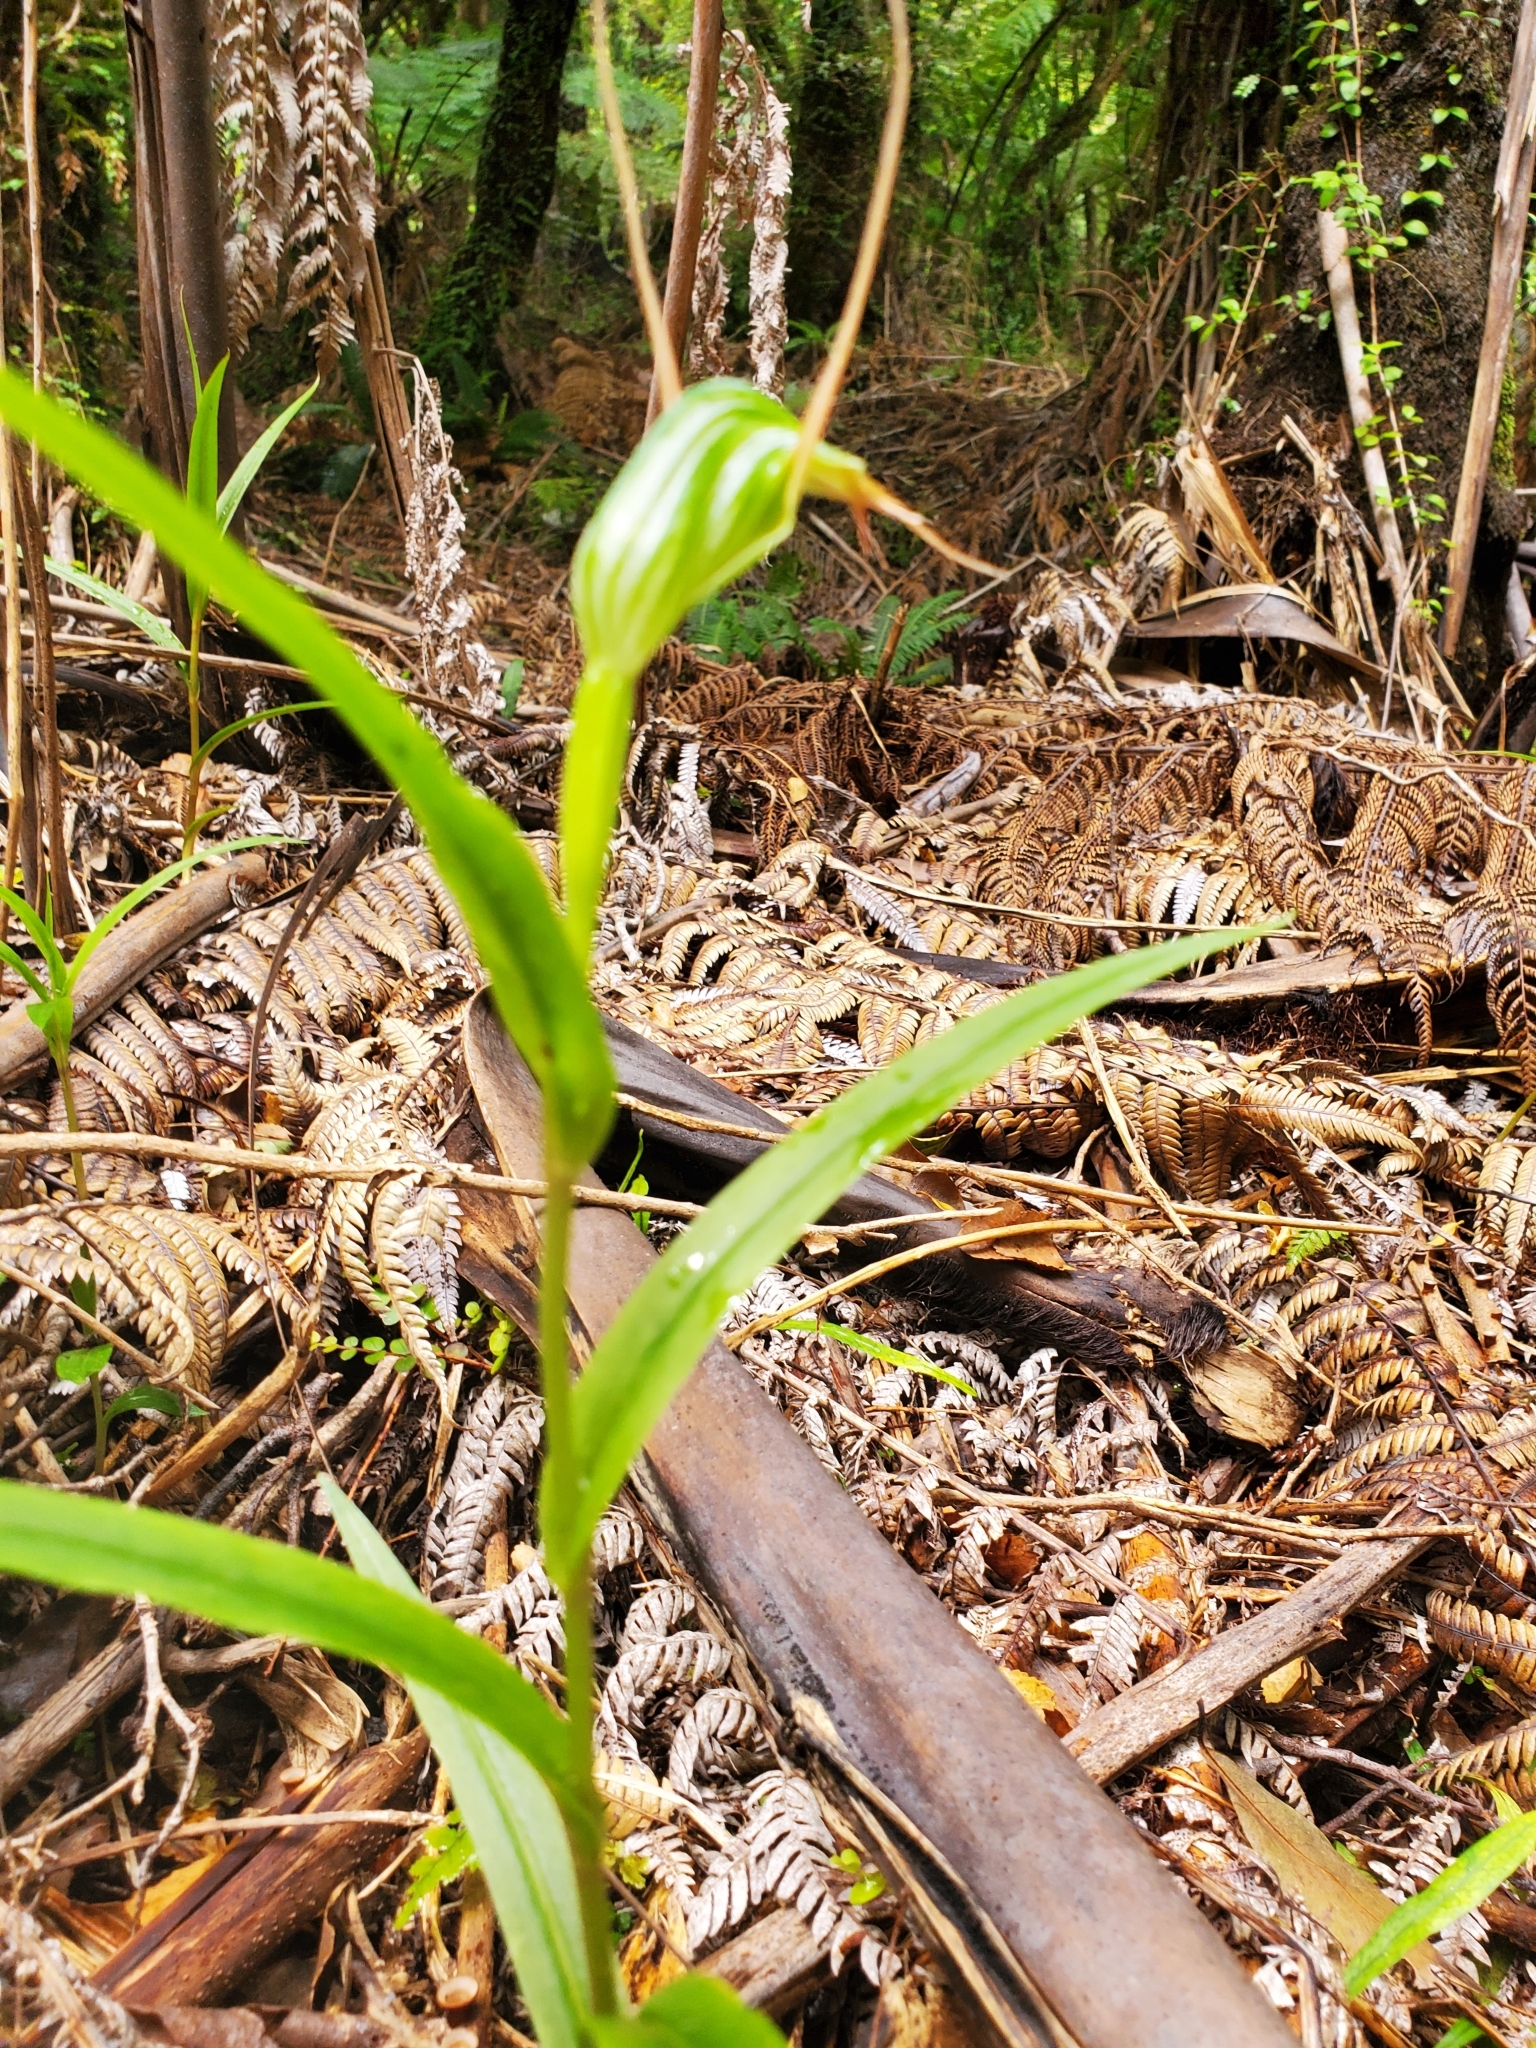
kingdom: Plantae
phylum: Tracheophyta
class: Liliopsida
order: Asparagales
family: Orchidaceae
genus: Pterostylis
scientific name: Pterostylis banksii
